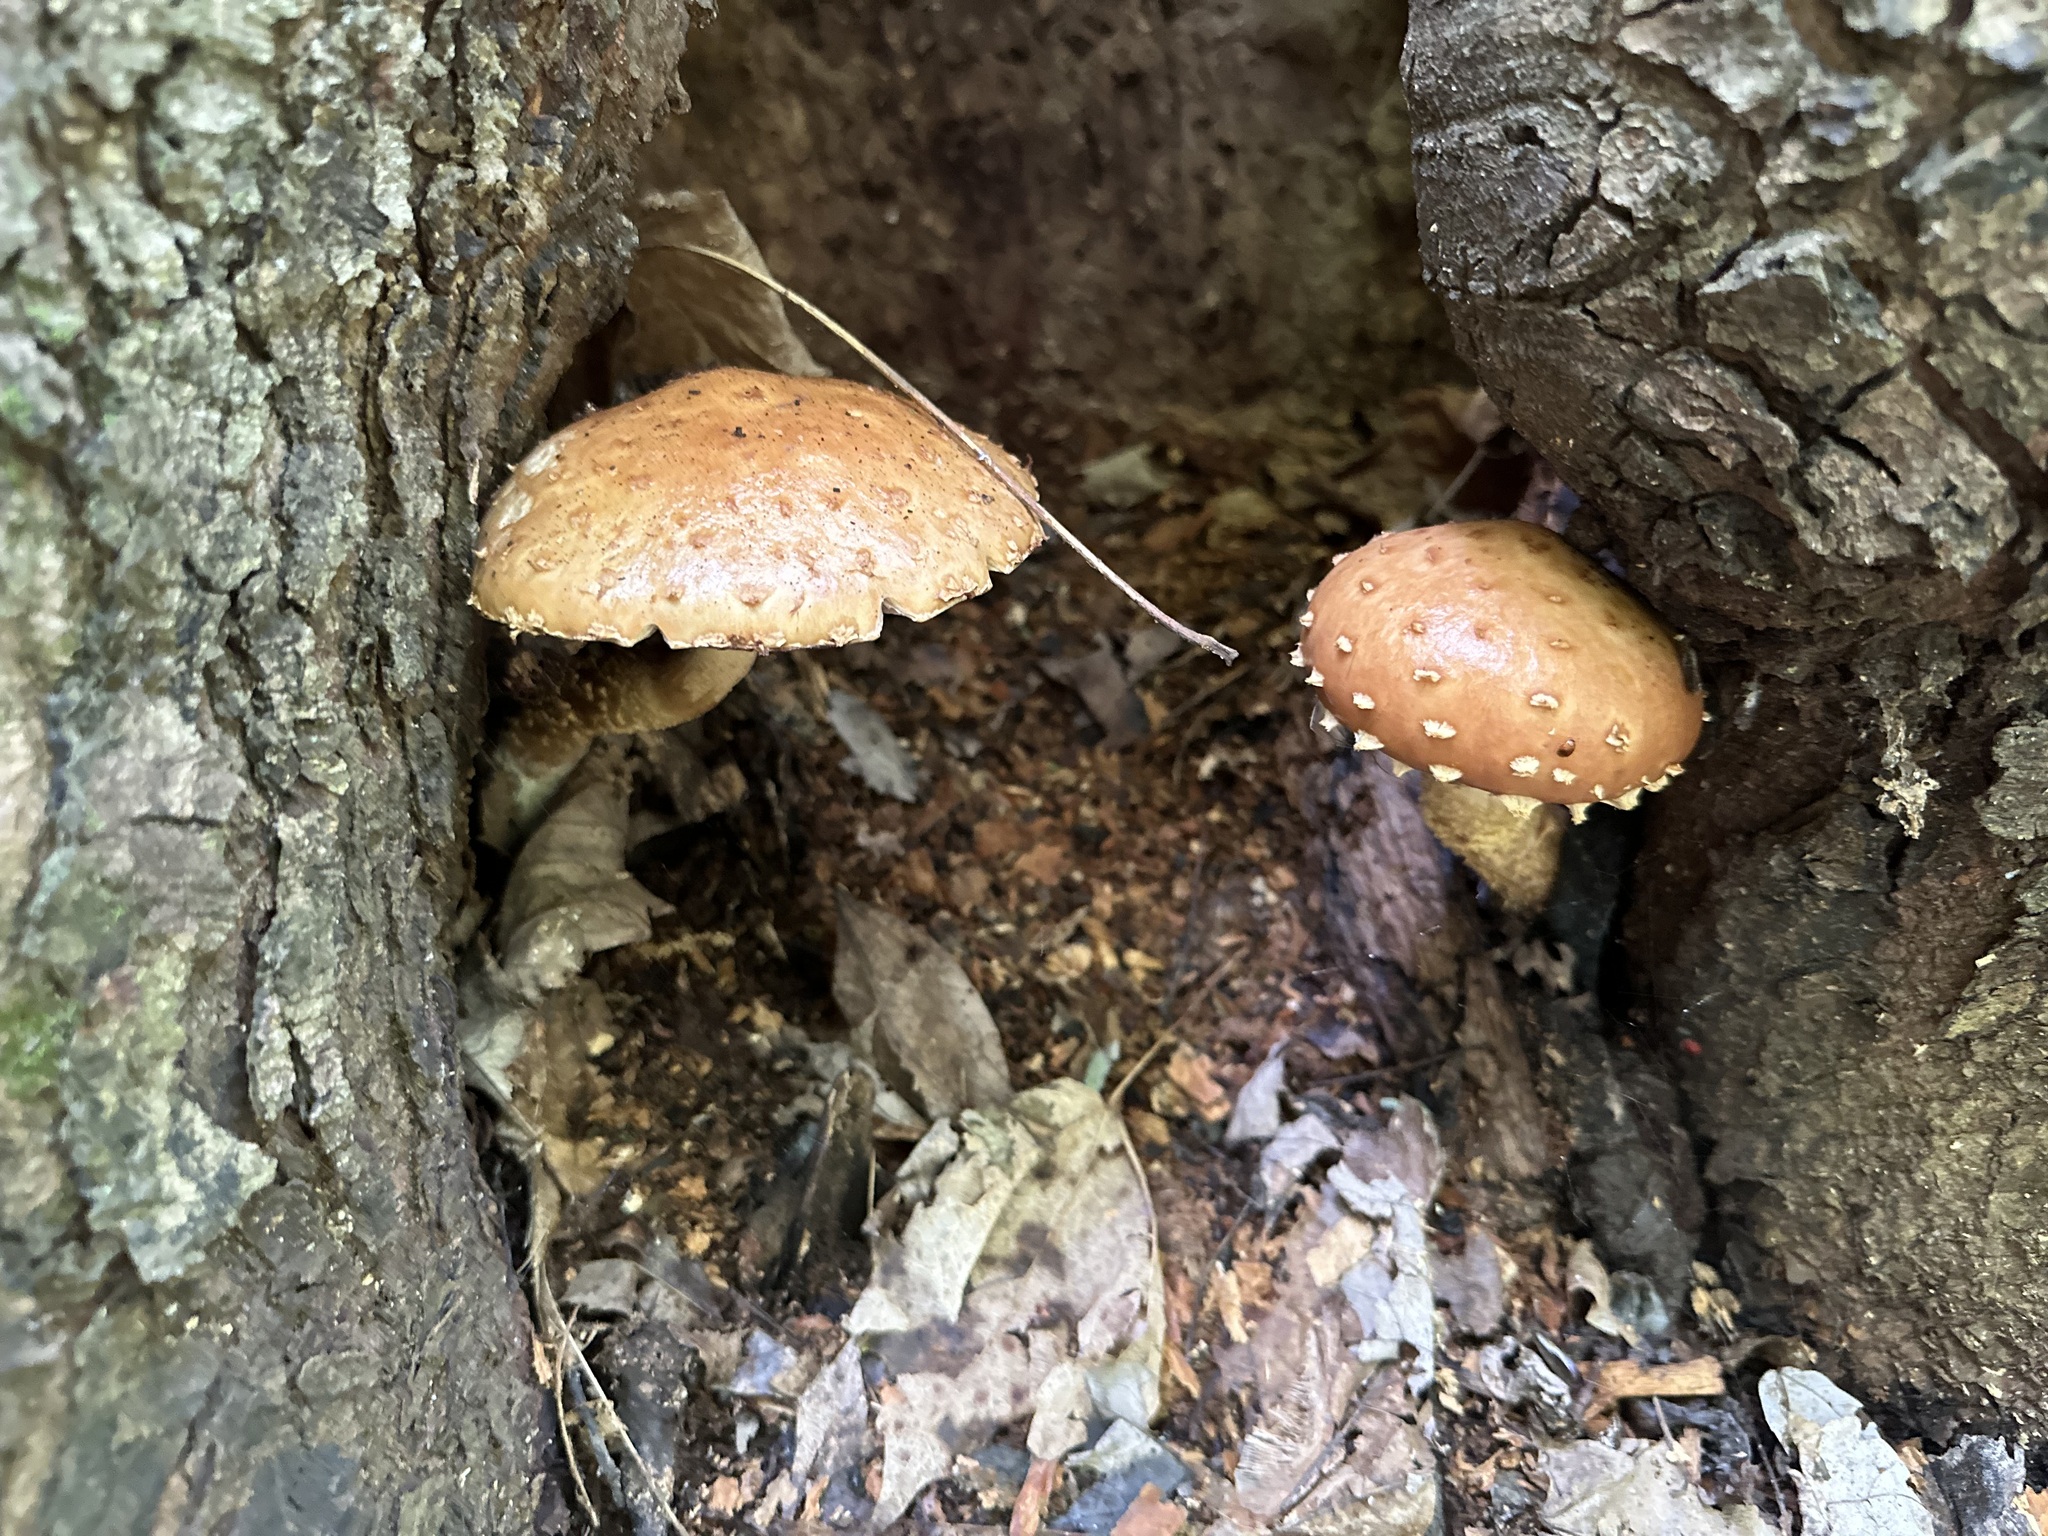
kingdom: Fungi
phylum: Basidiomycota
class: Agaricomycetes
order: Agaricales
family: Tubariaceae
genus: Hemistropharia
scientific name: Hemistropharia albocrenulata
